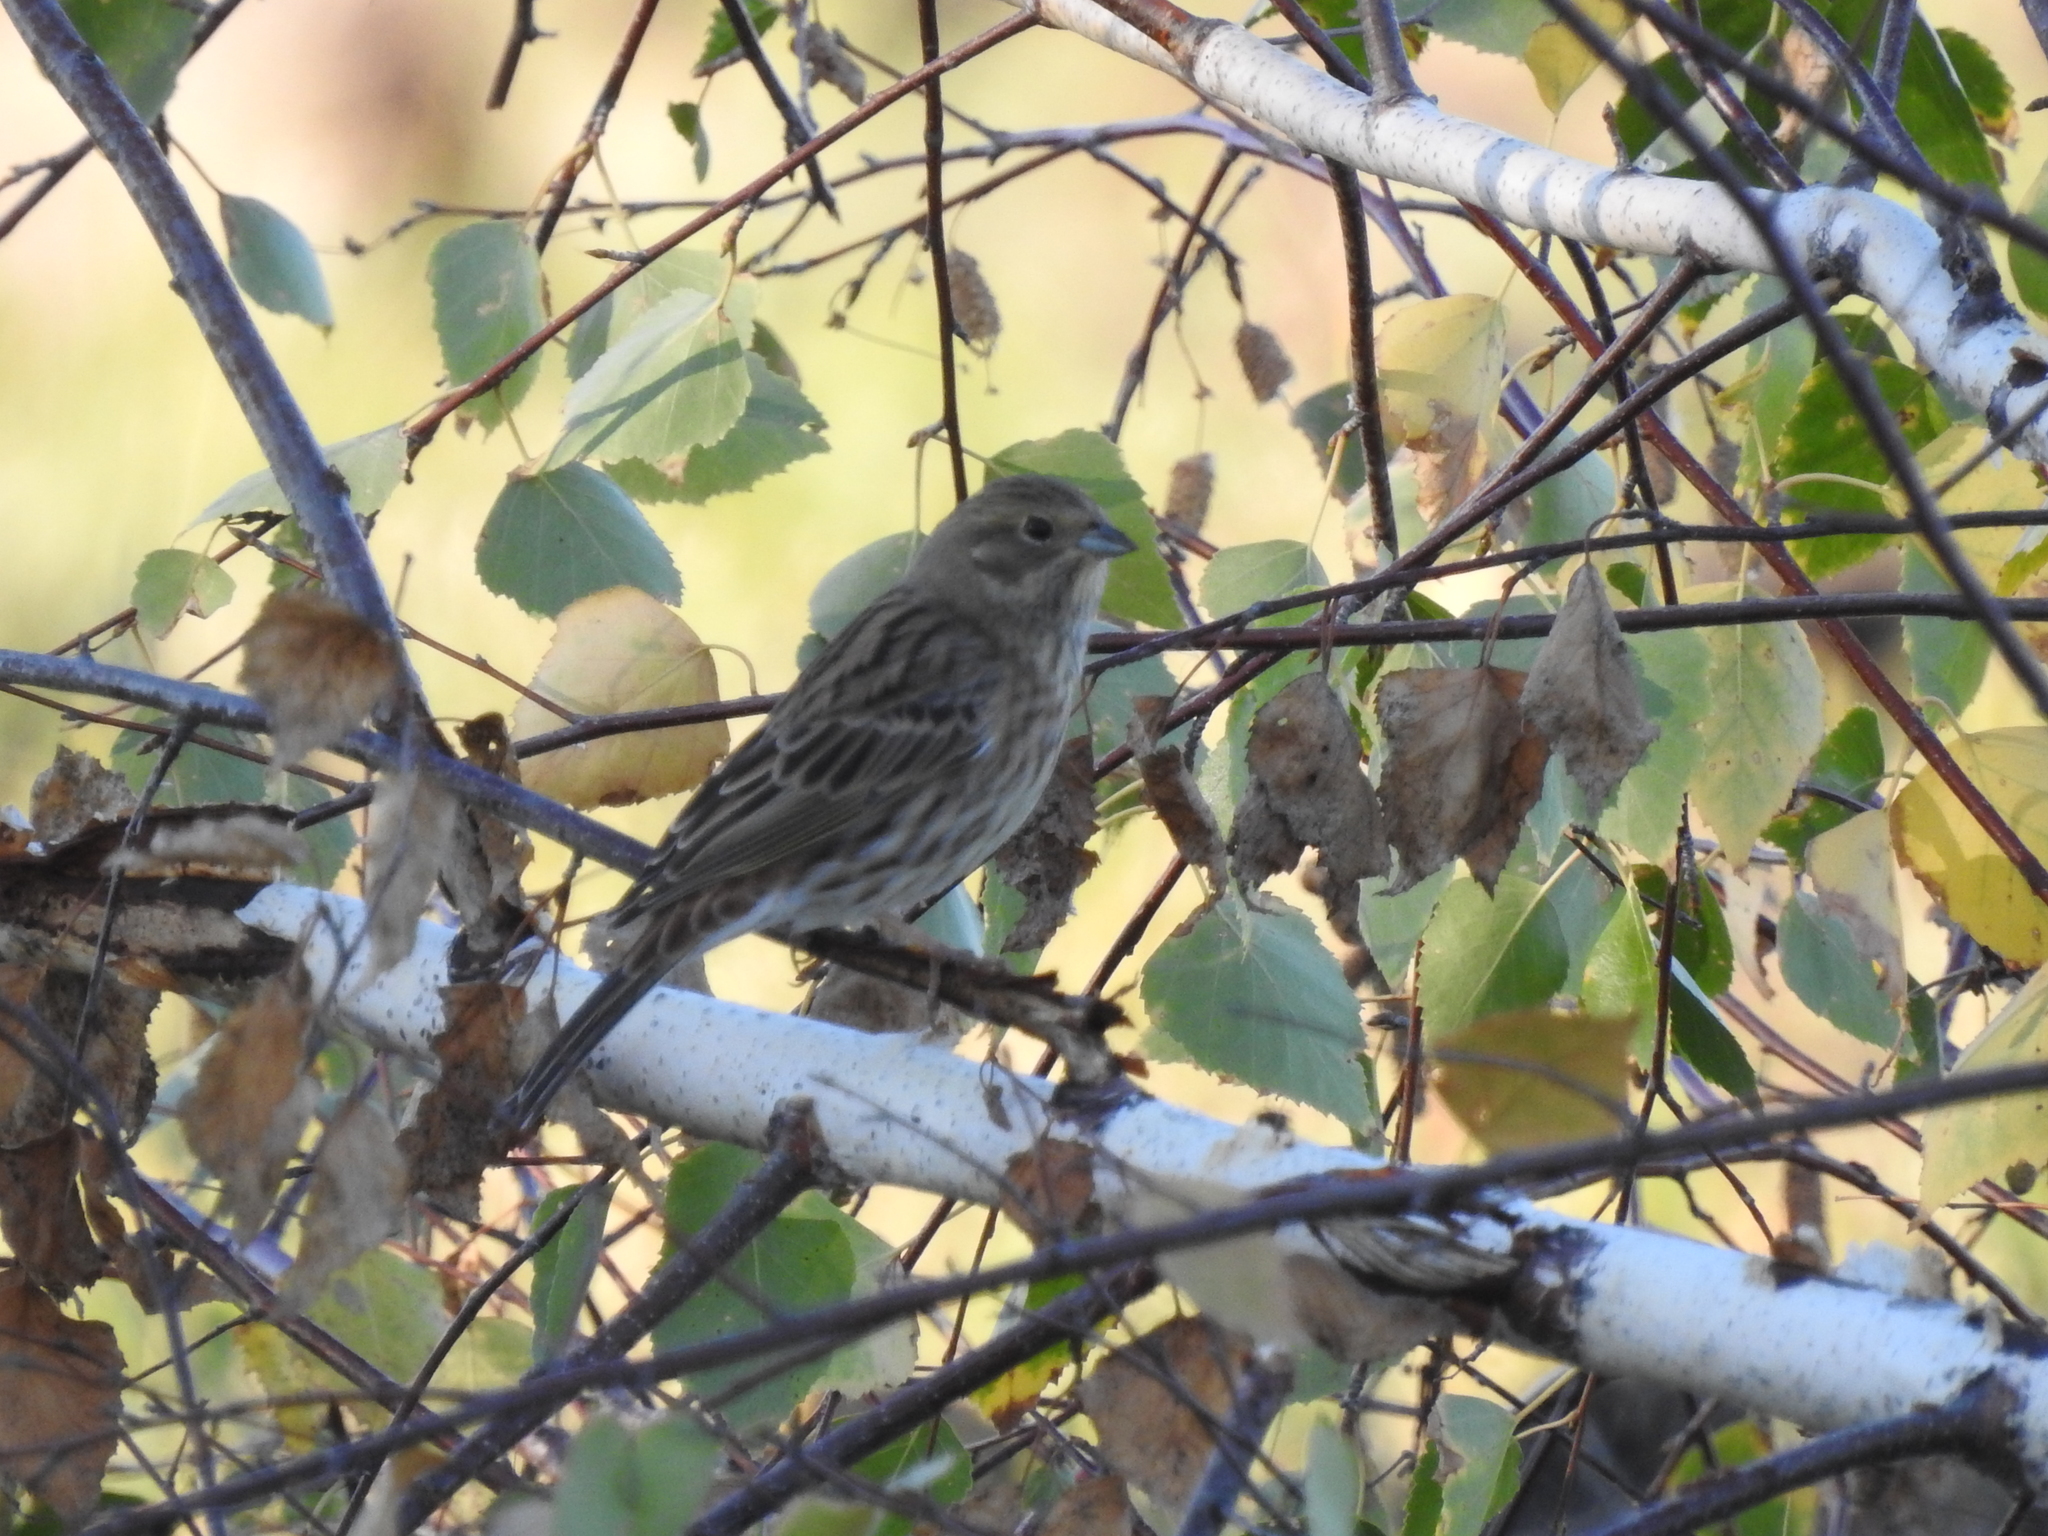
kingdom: Animalia
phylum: Chordata
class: Aves
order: Passeriformes
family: Emberizidae
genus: Emberiza
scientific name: Emberiza citrinella
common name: Yellowhammer
